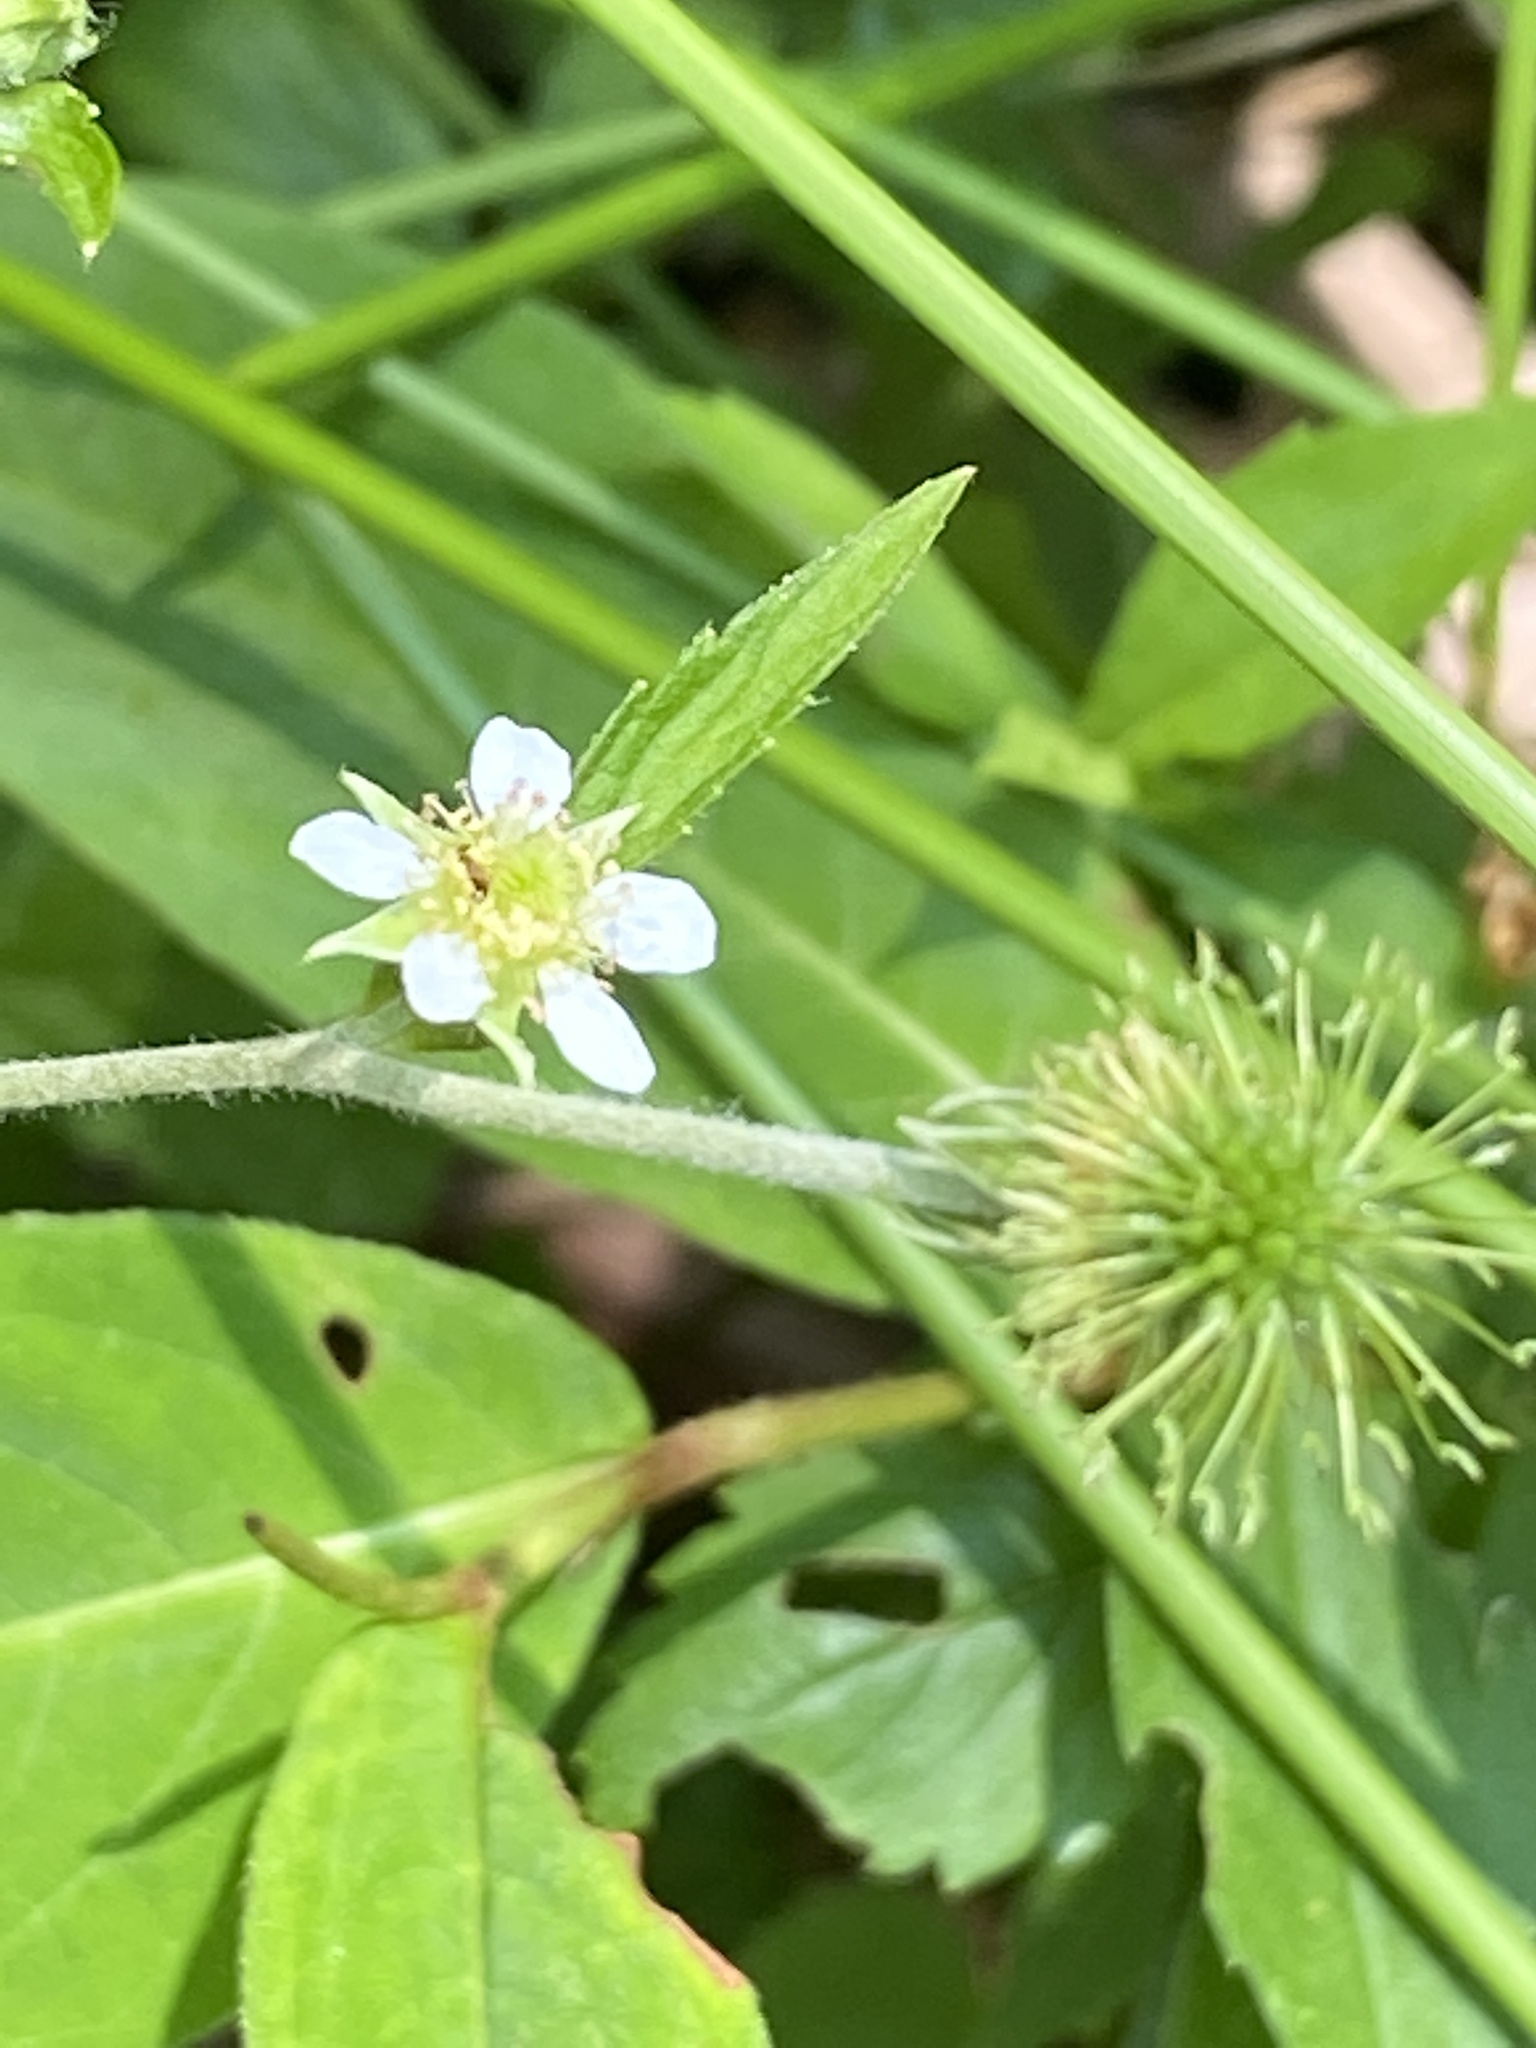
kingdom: Plantae
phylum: Tracheophyta
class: Magnoliopsida
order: Rosales
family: Rosaceae
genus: Geum
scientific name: Geum canadense
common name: White avens
